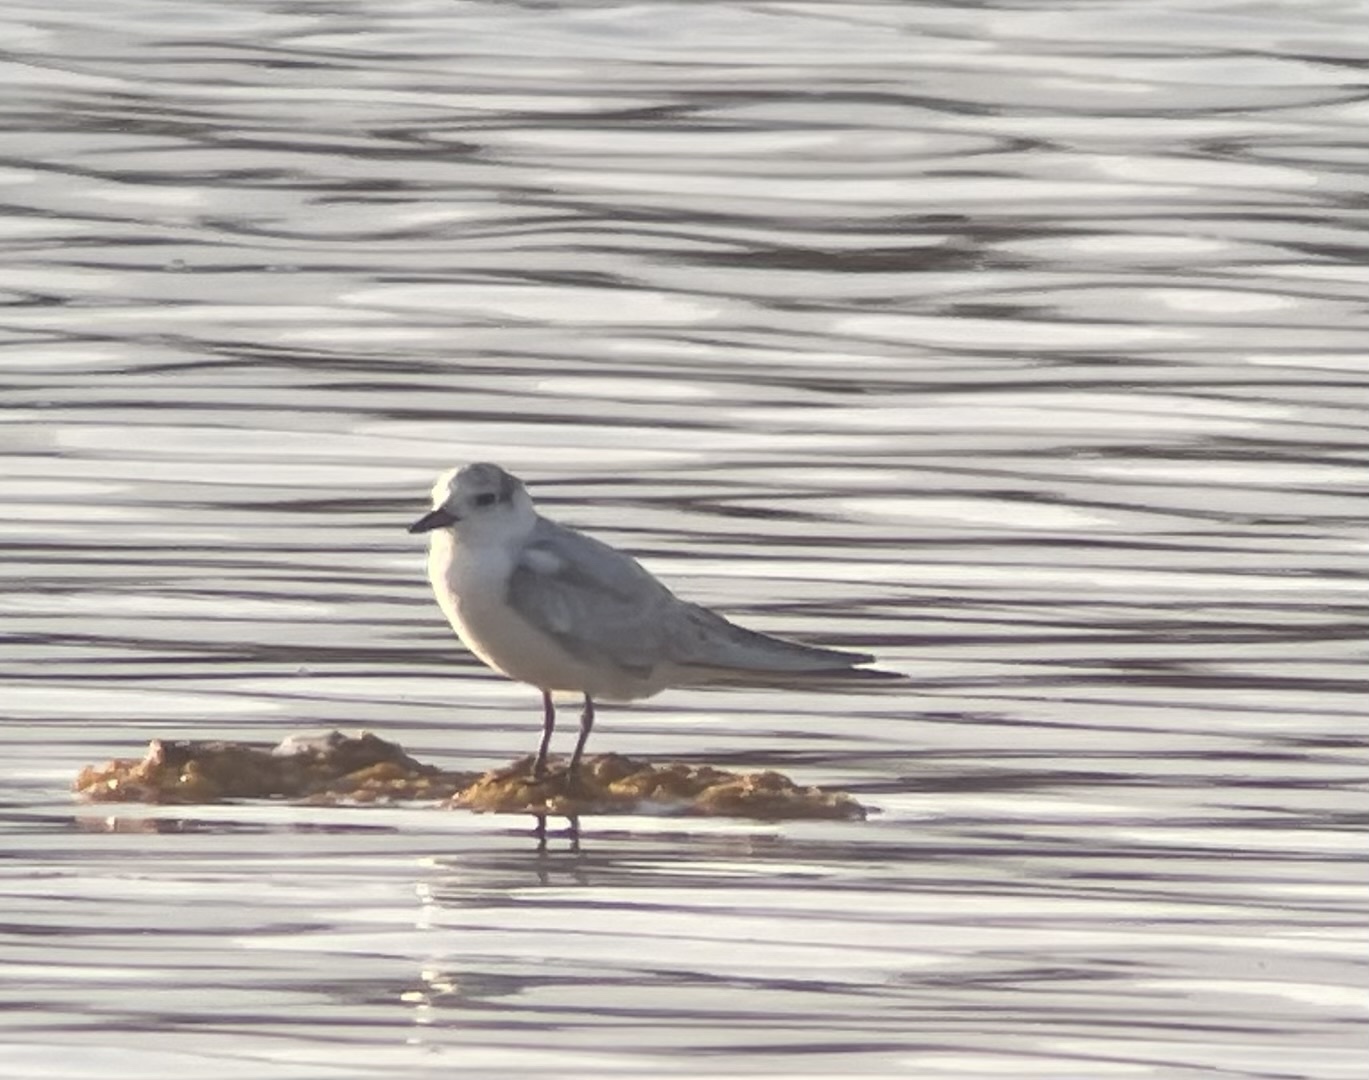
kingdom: Animalia
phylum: Chordata
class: Aves
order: Charadriiformes
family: Laridae
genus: Chlidonias
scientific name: Chlidonias hybrida
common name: Whiskered tern
